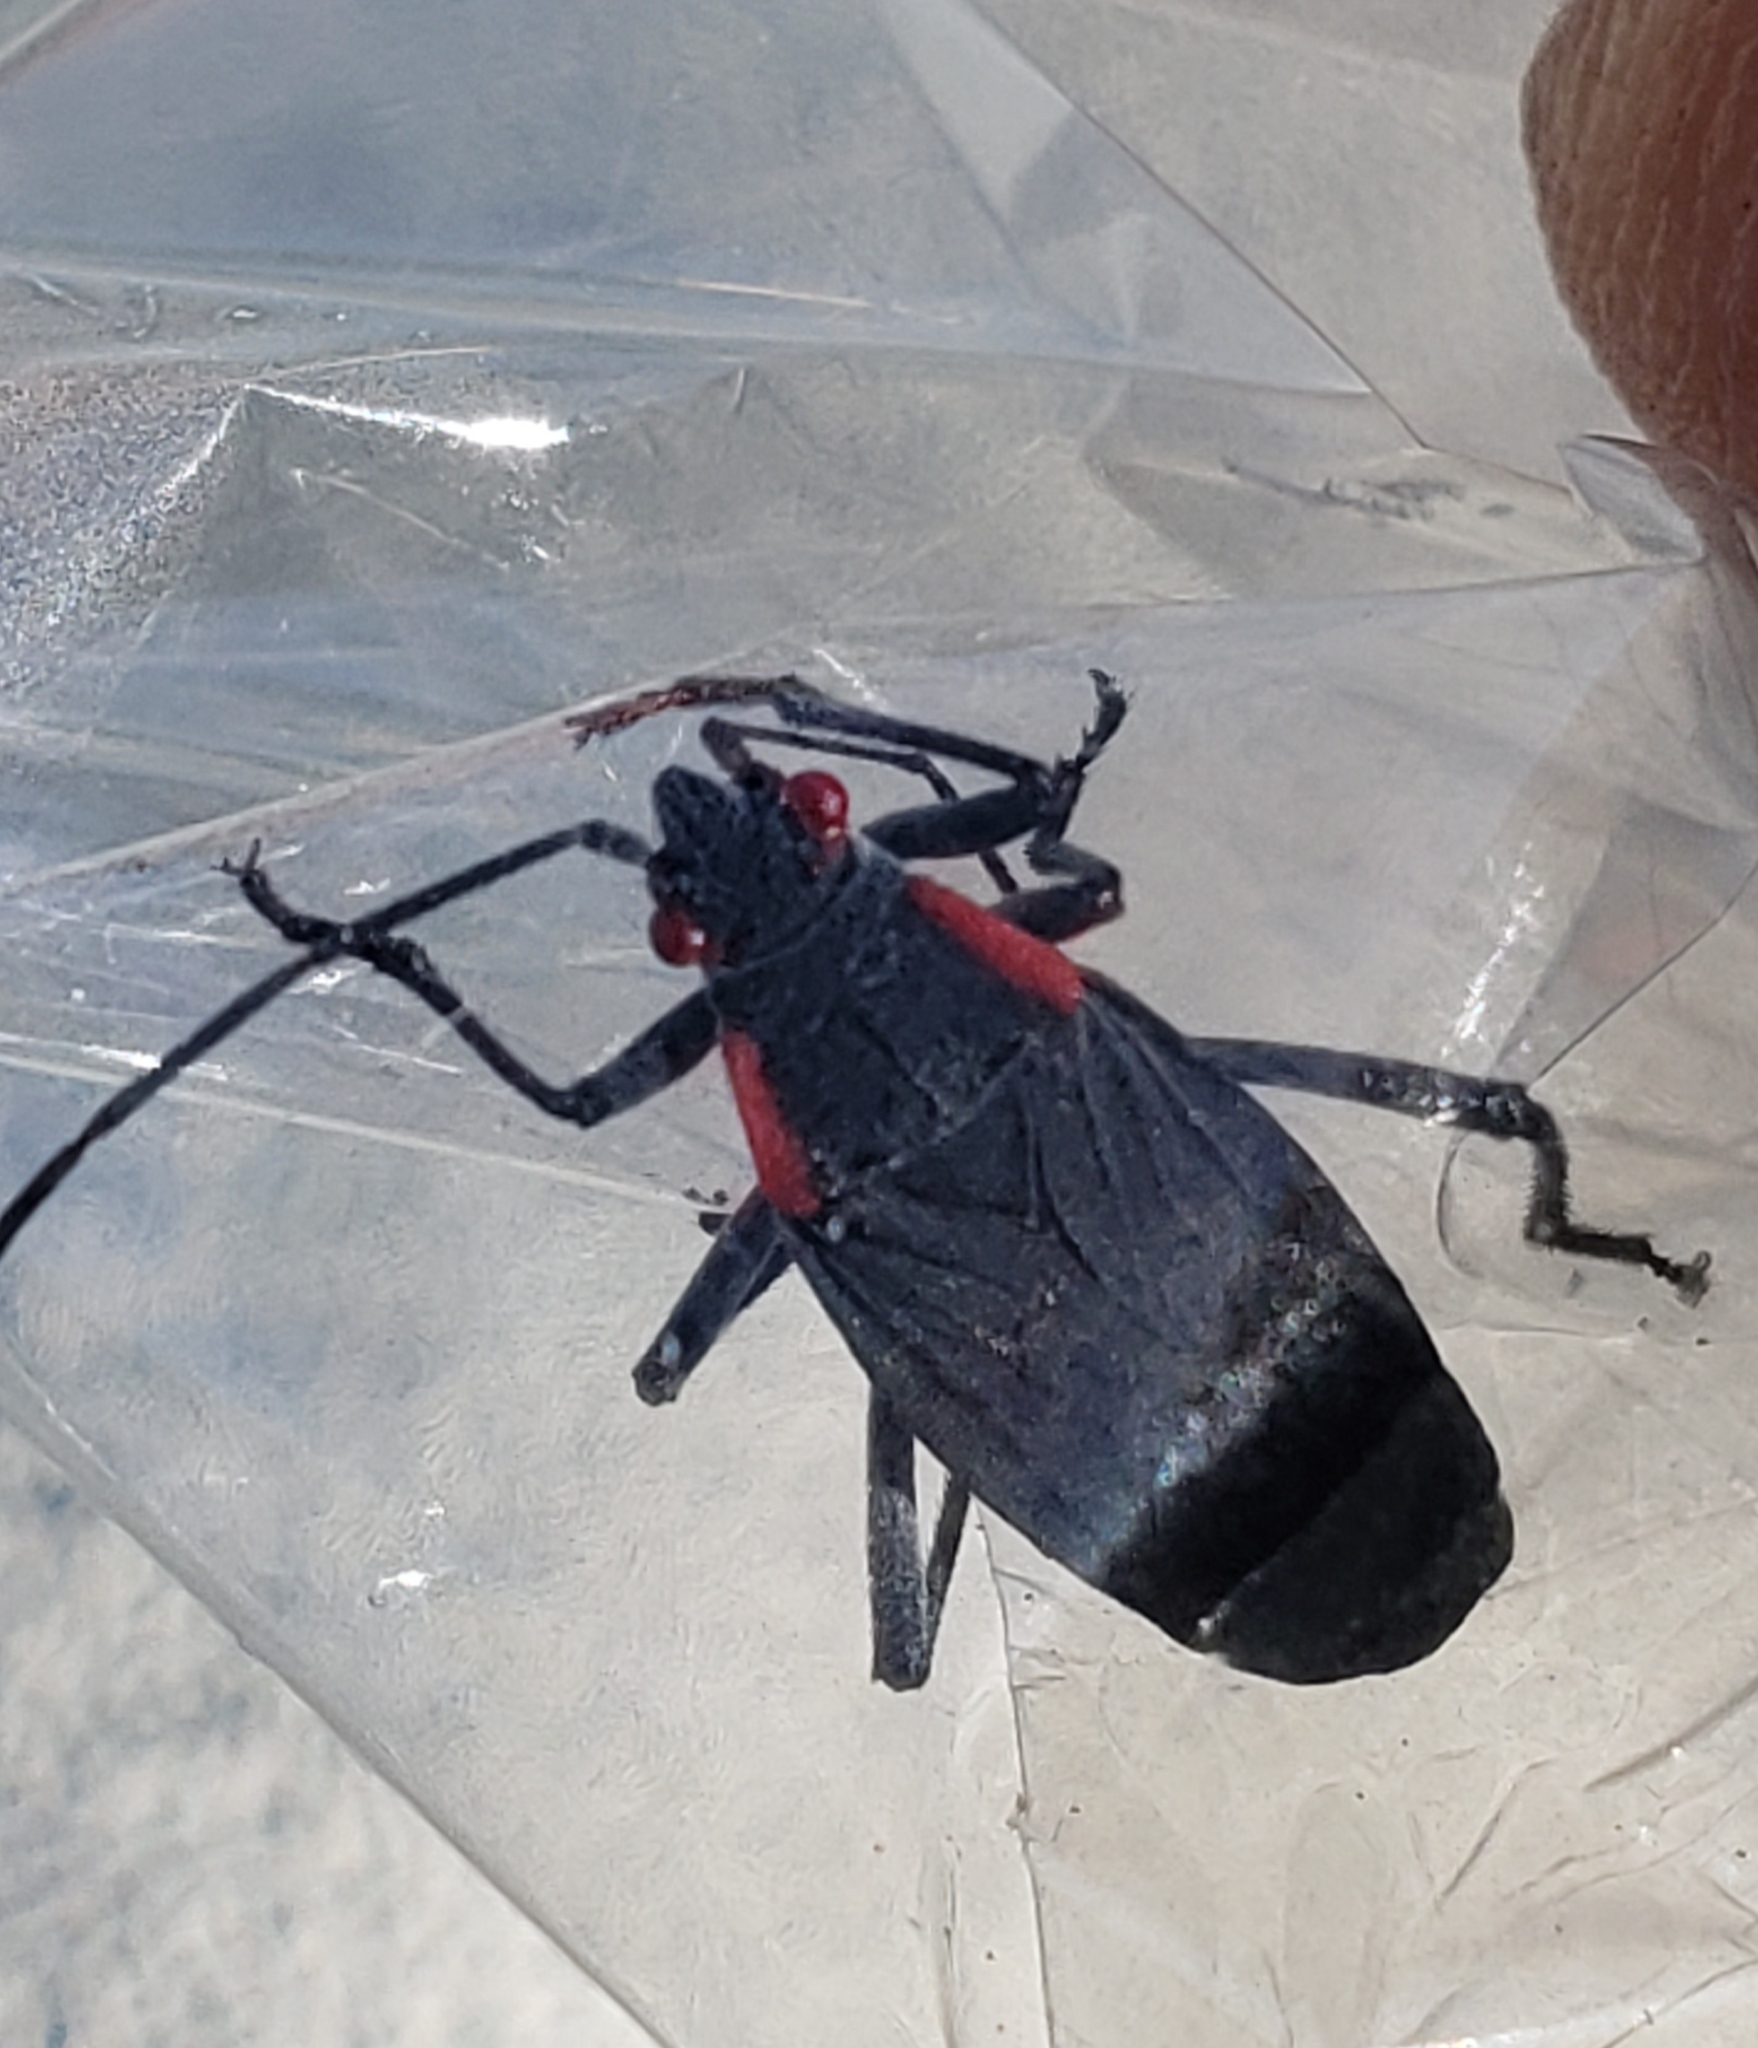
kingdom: Animalia
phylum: Arthropoda
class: Insecta
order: Hemiptera
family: Rhopalidae
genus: Jadera
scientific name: Jadera haematoloma
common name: Red-shouldered bug
